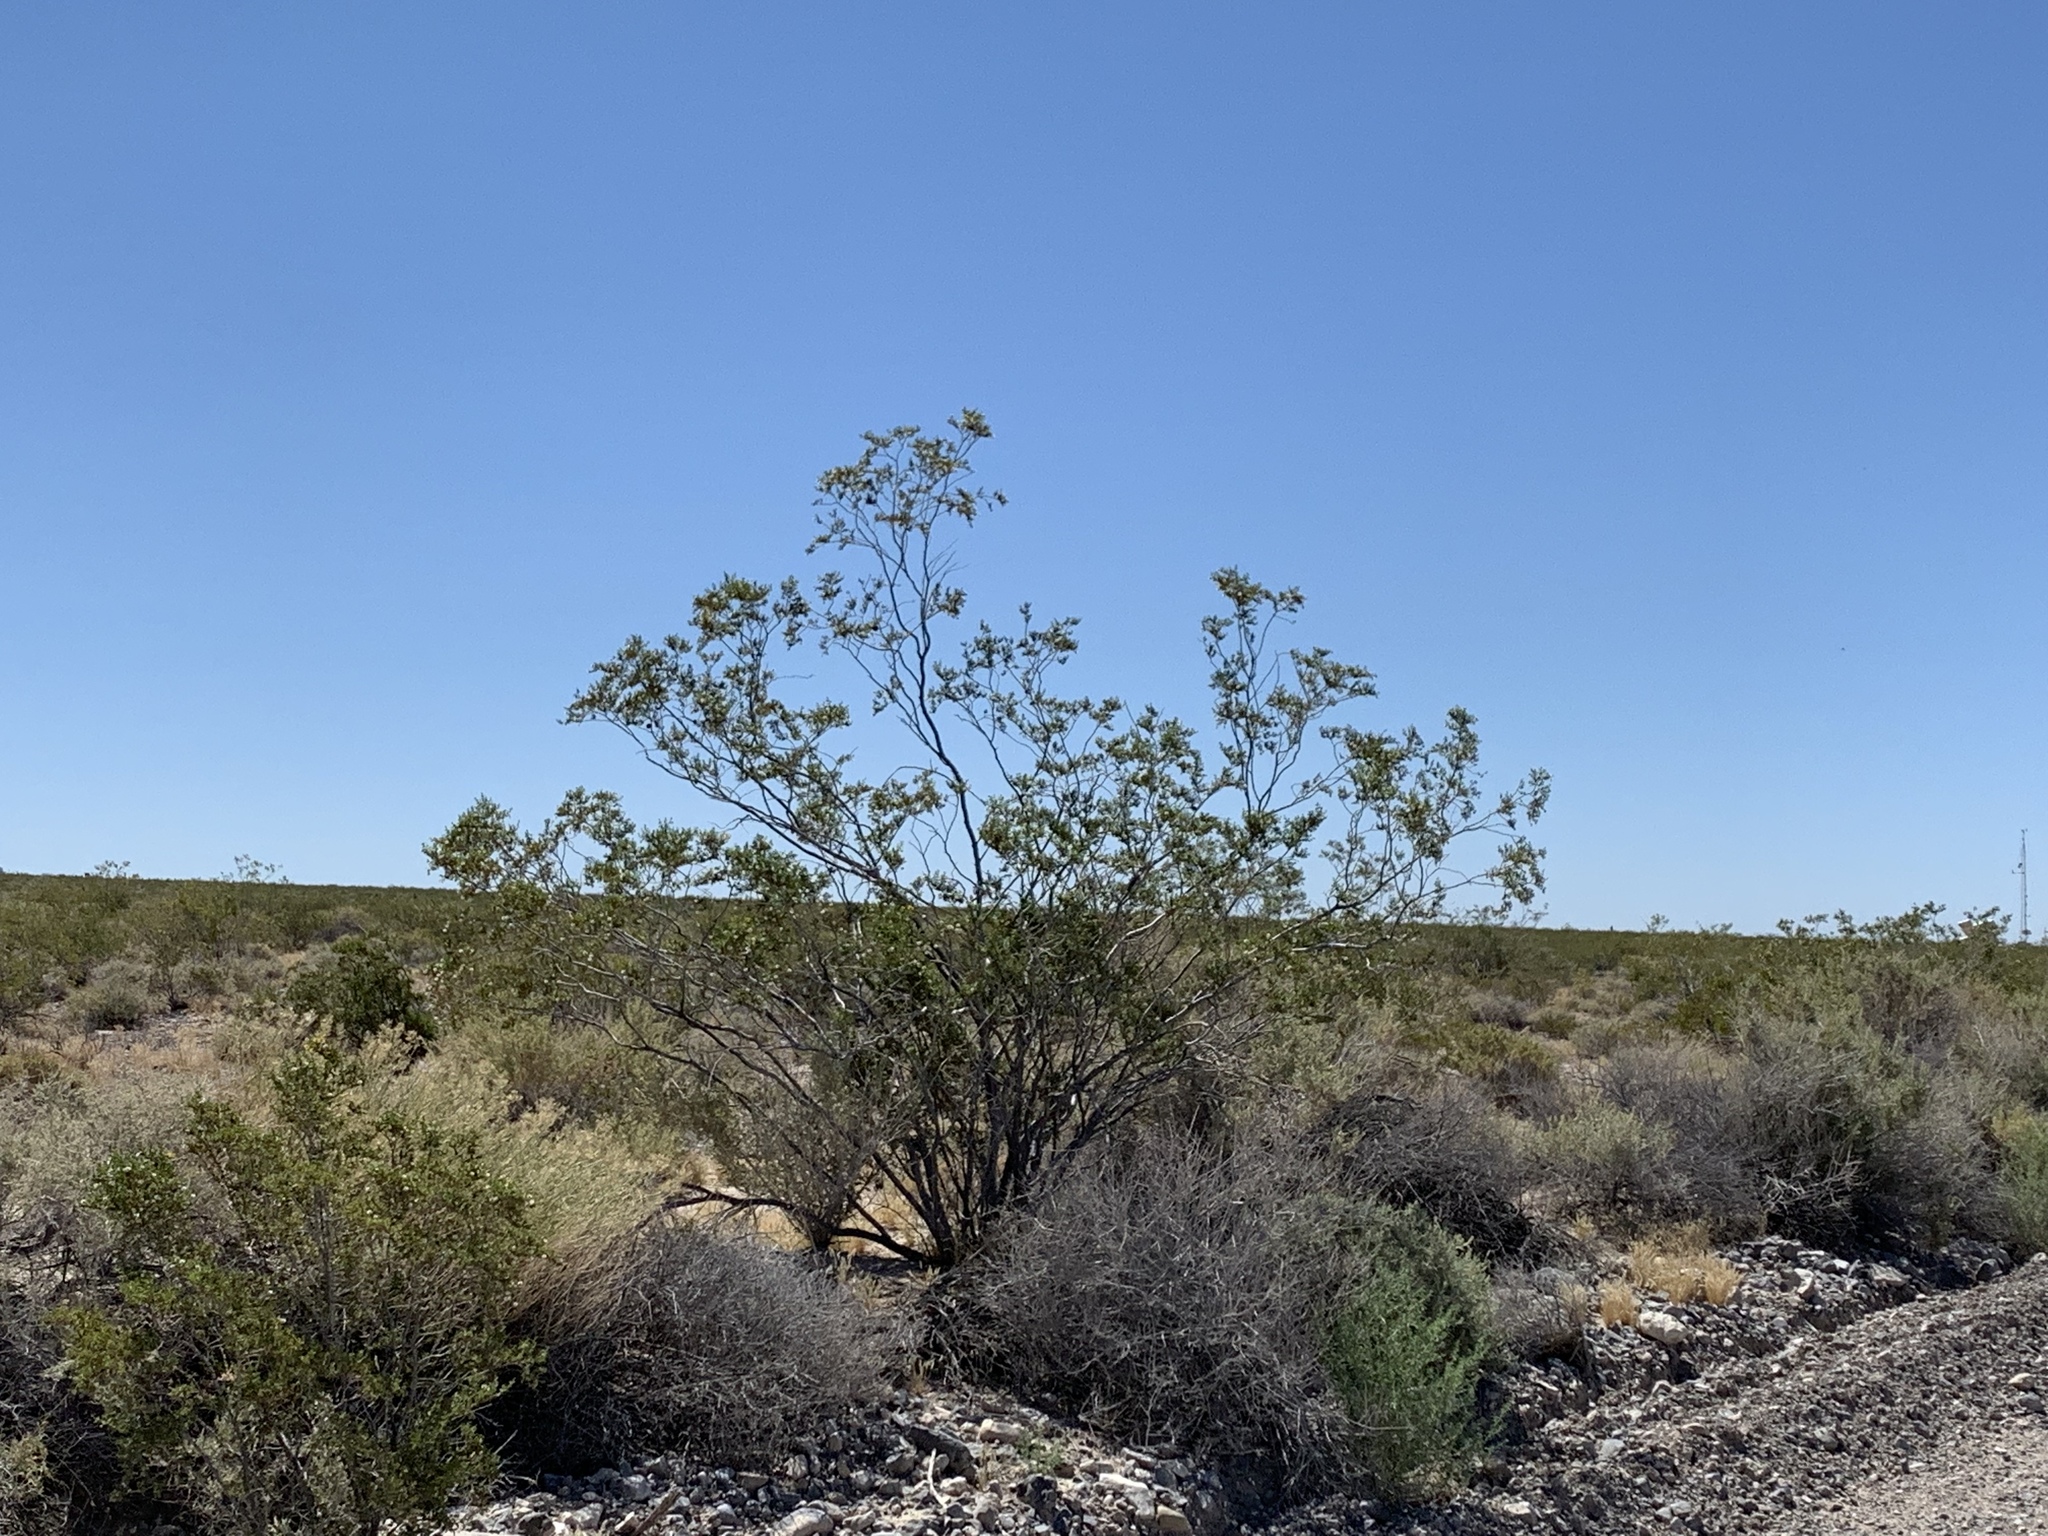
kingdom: Plantae
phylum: Tracheophyta
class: Magnoliopsida
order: Zygophyllales
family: Zygophyllaceae
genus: Larrea
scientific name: Larrea tridentata
